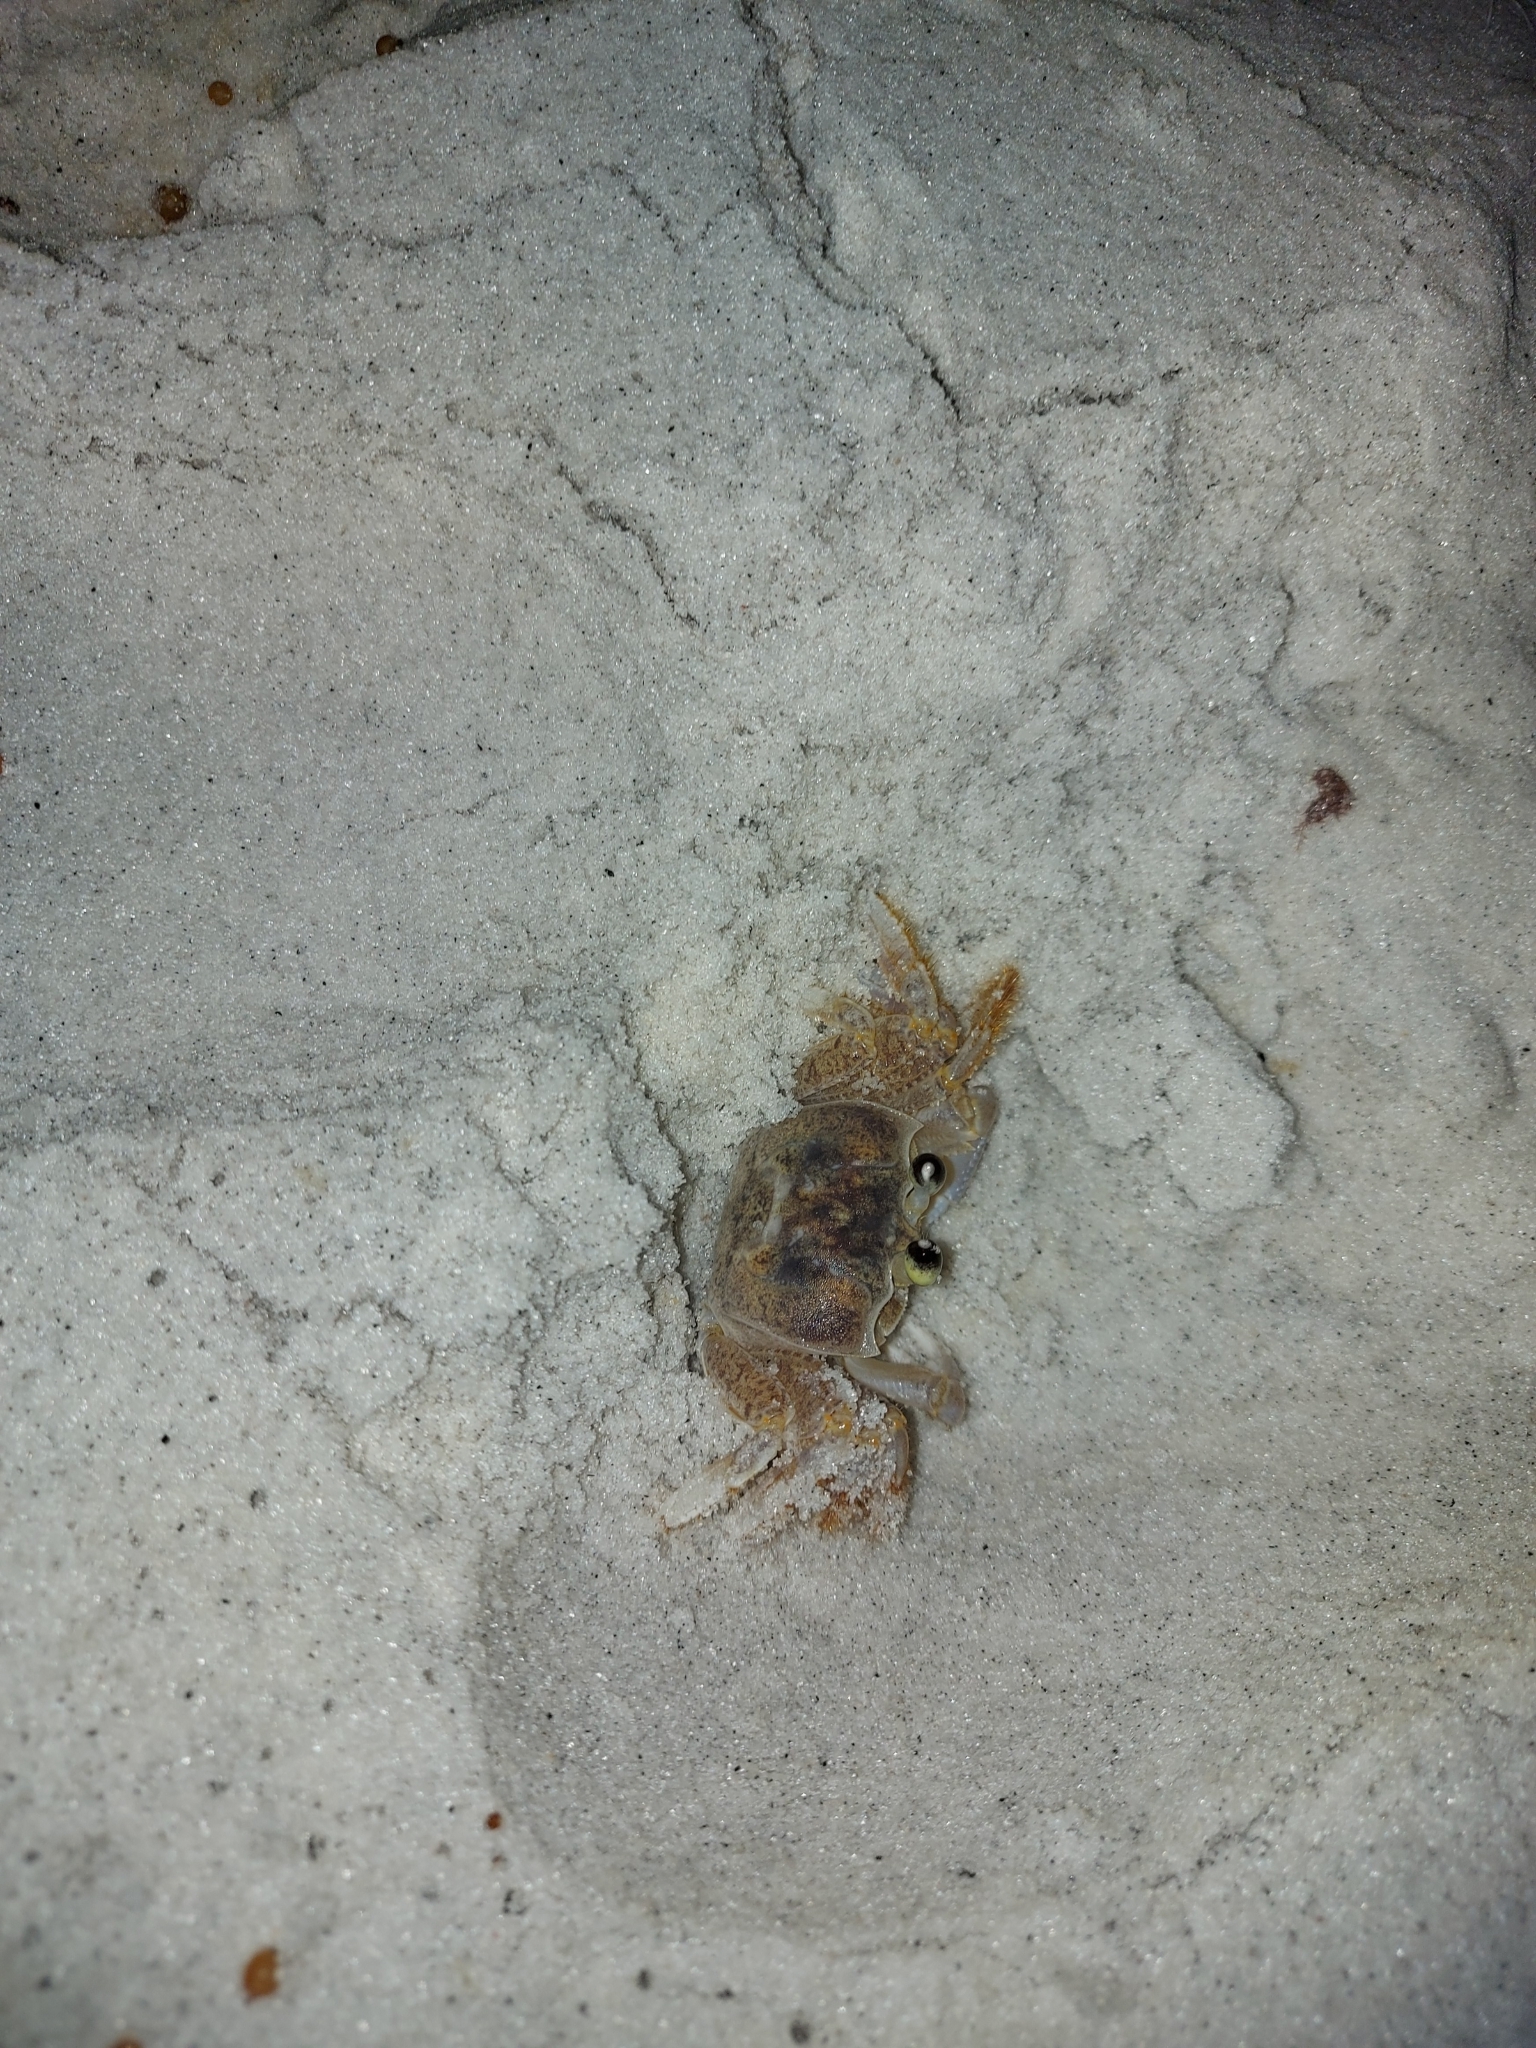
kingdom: Animalia
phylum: Arthropoda
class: Malacostraca
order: Decapoda
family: Ocypodidae
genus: Ocypode
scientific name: Ocypode quadrata
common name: Ghost crab
